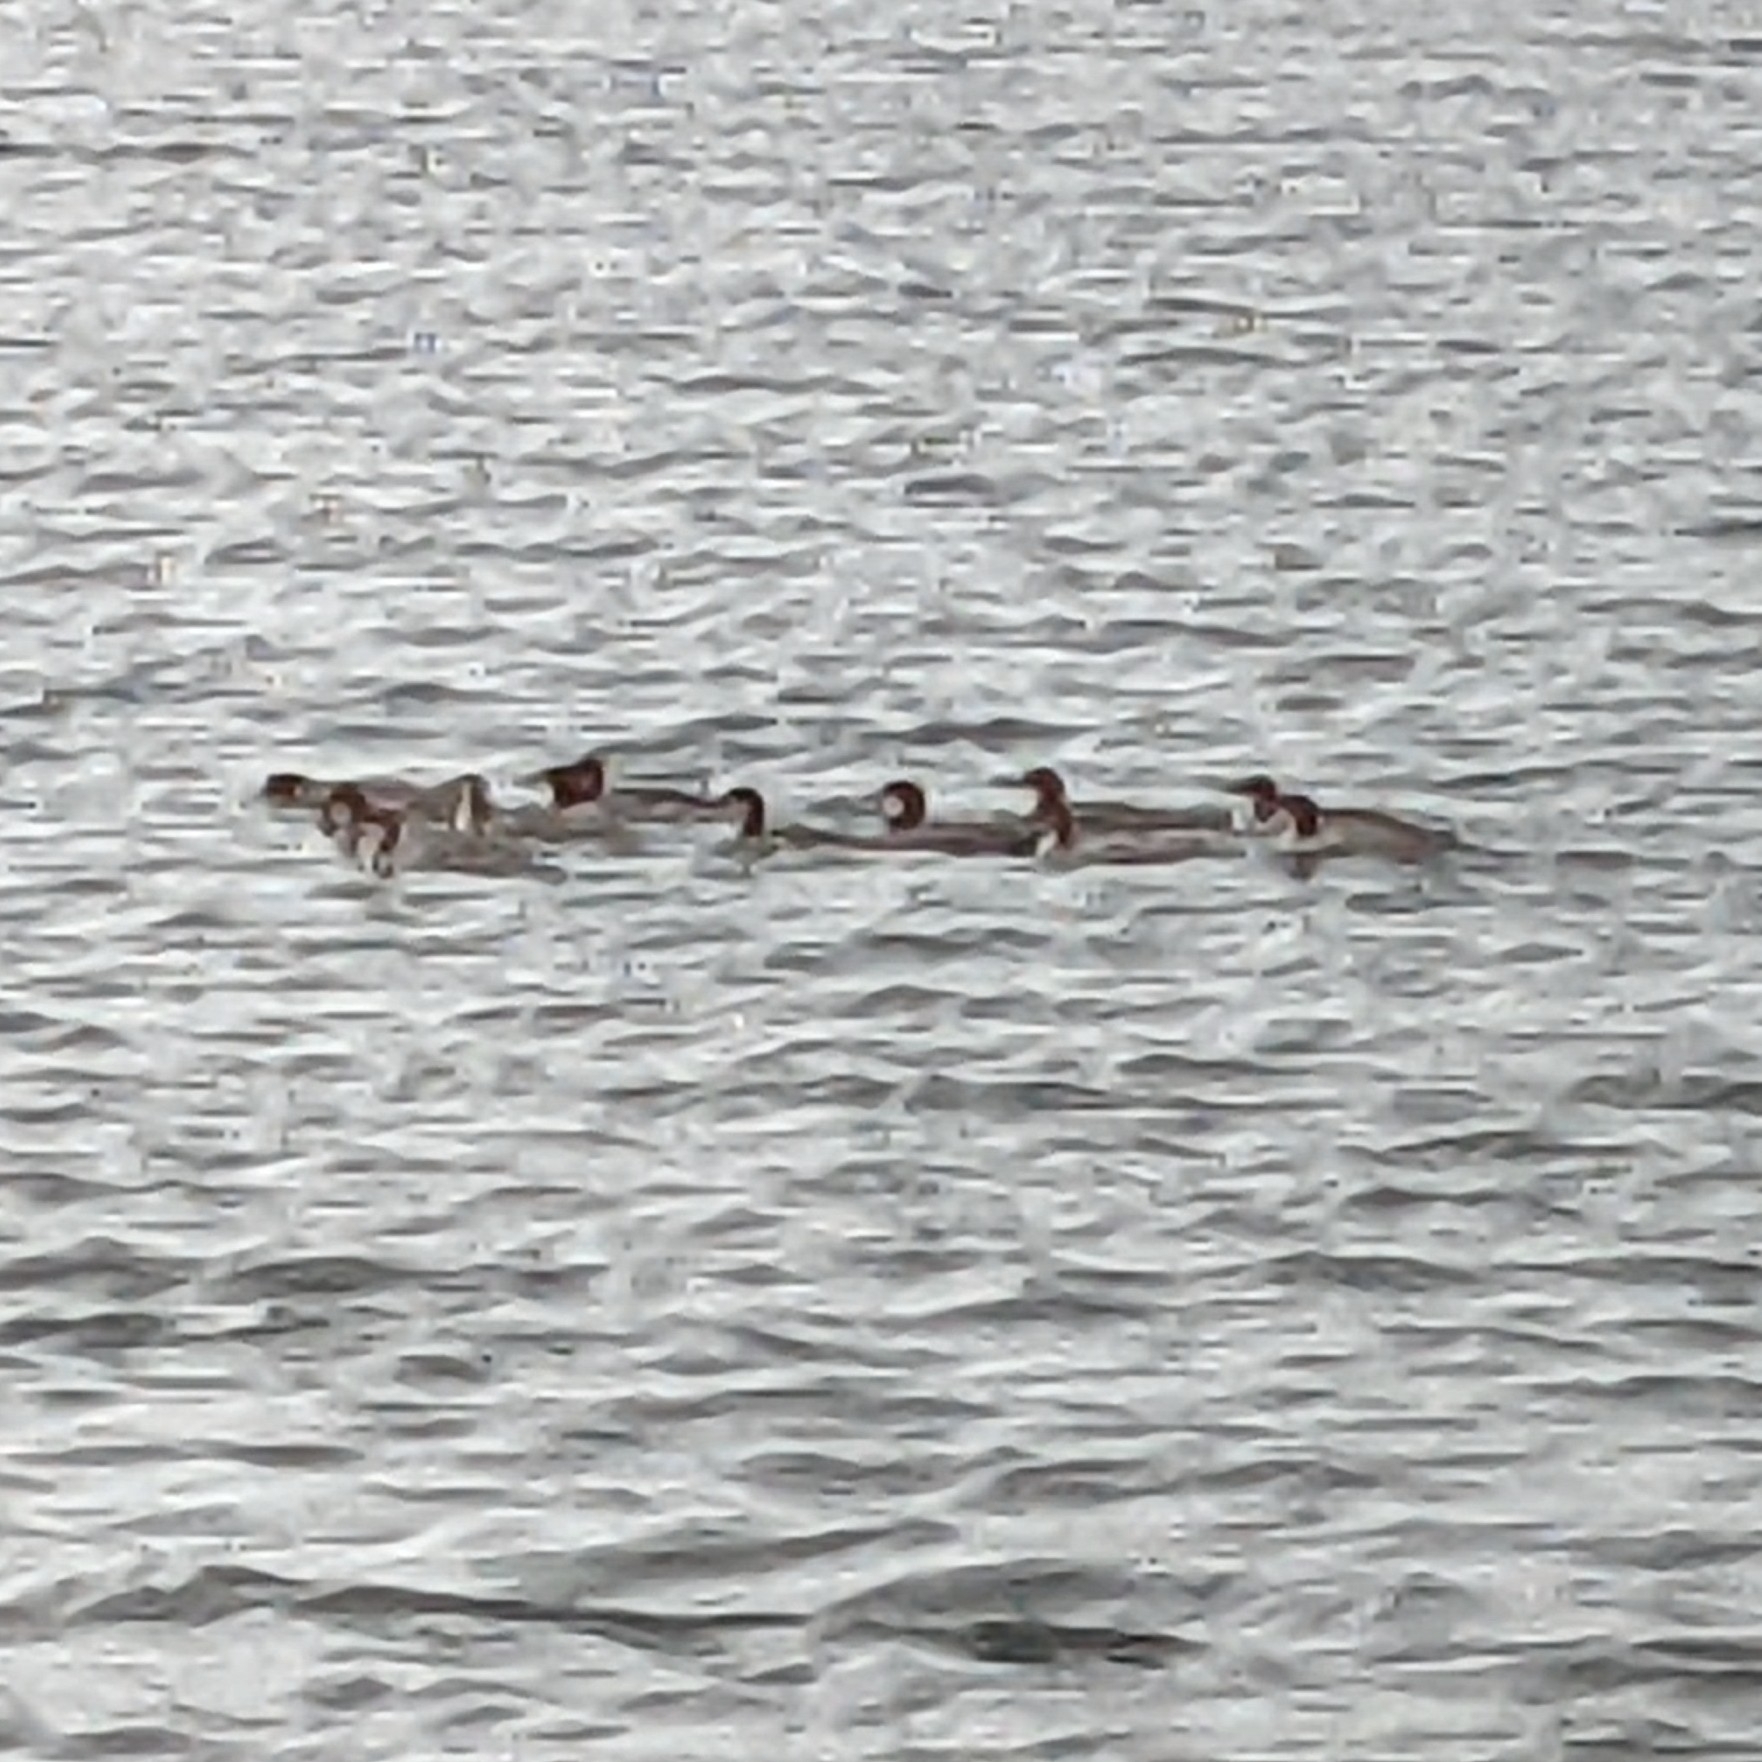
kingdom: Animalia
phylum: Chordata
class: Aves
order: Anseriformes
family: Anatidae
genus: Mergus
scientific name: Mergus merganser
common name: Common merganser
